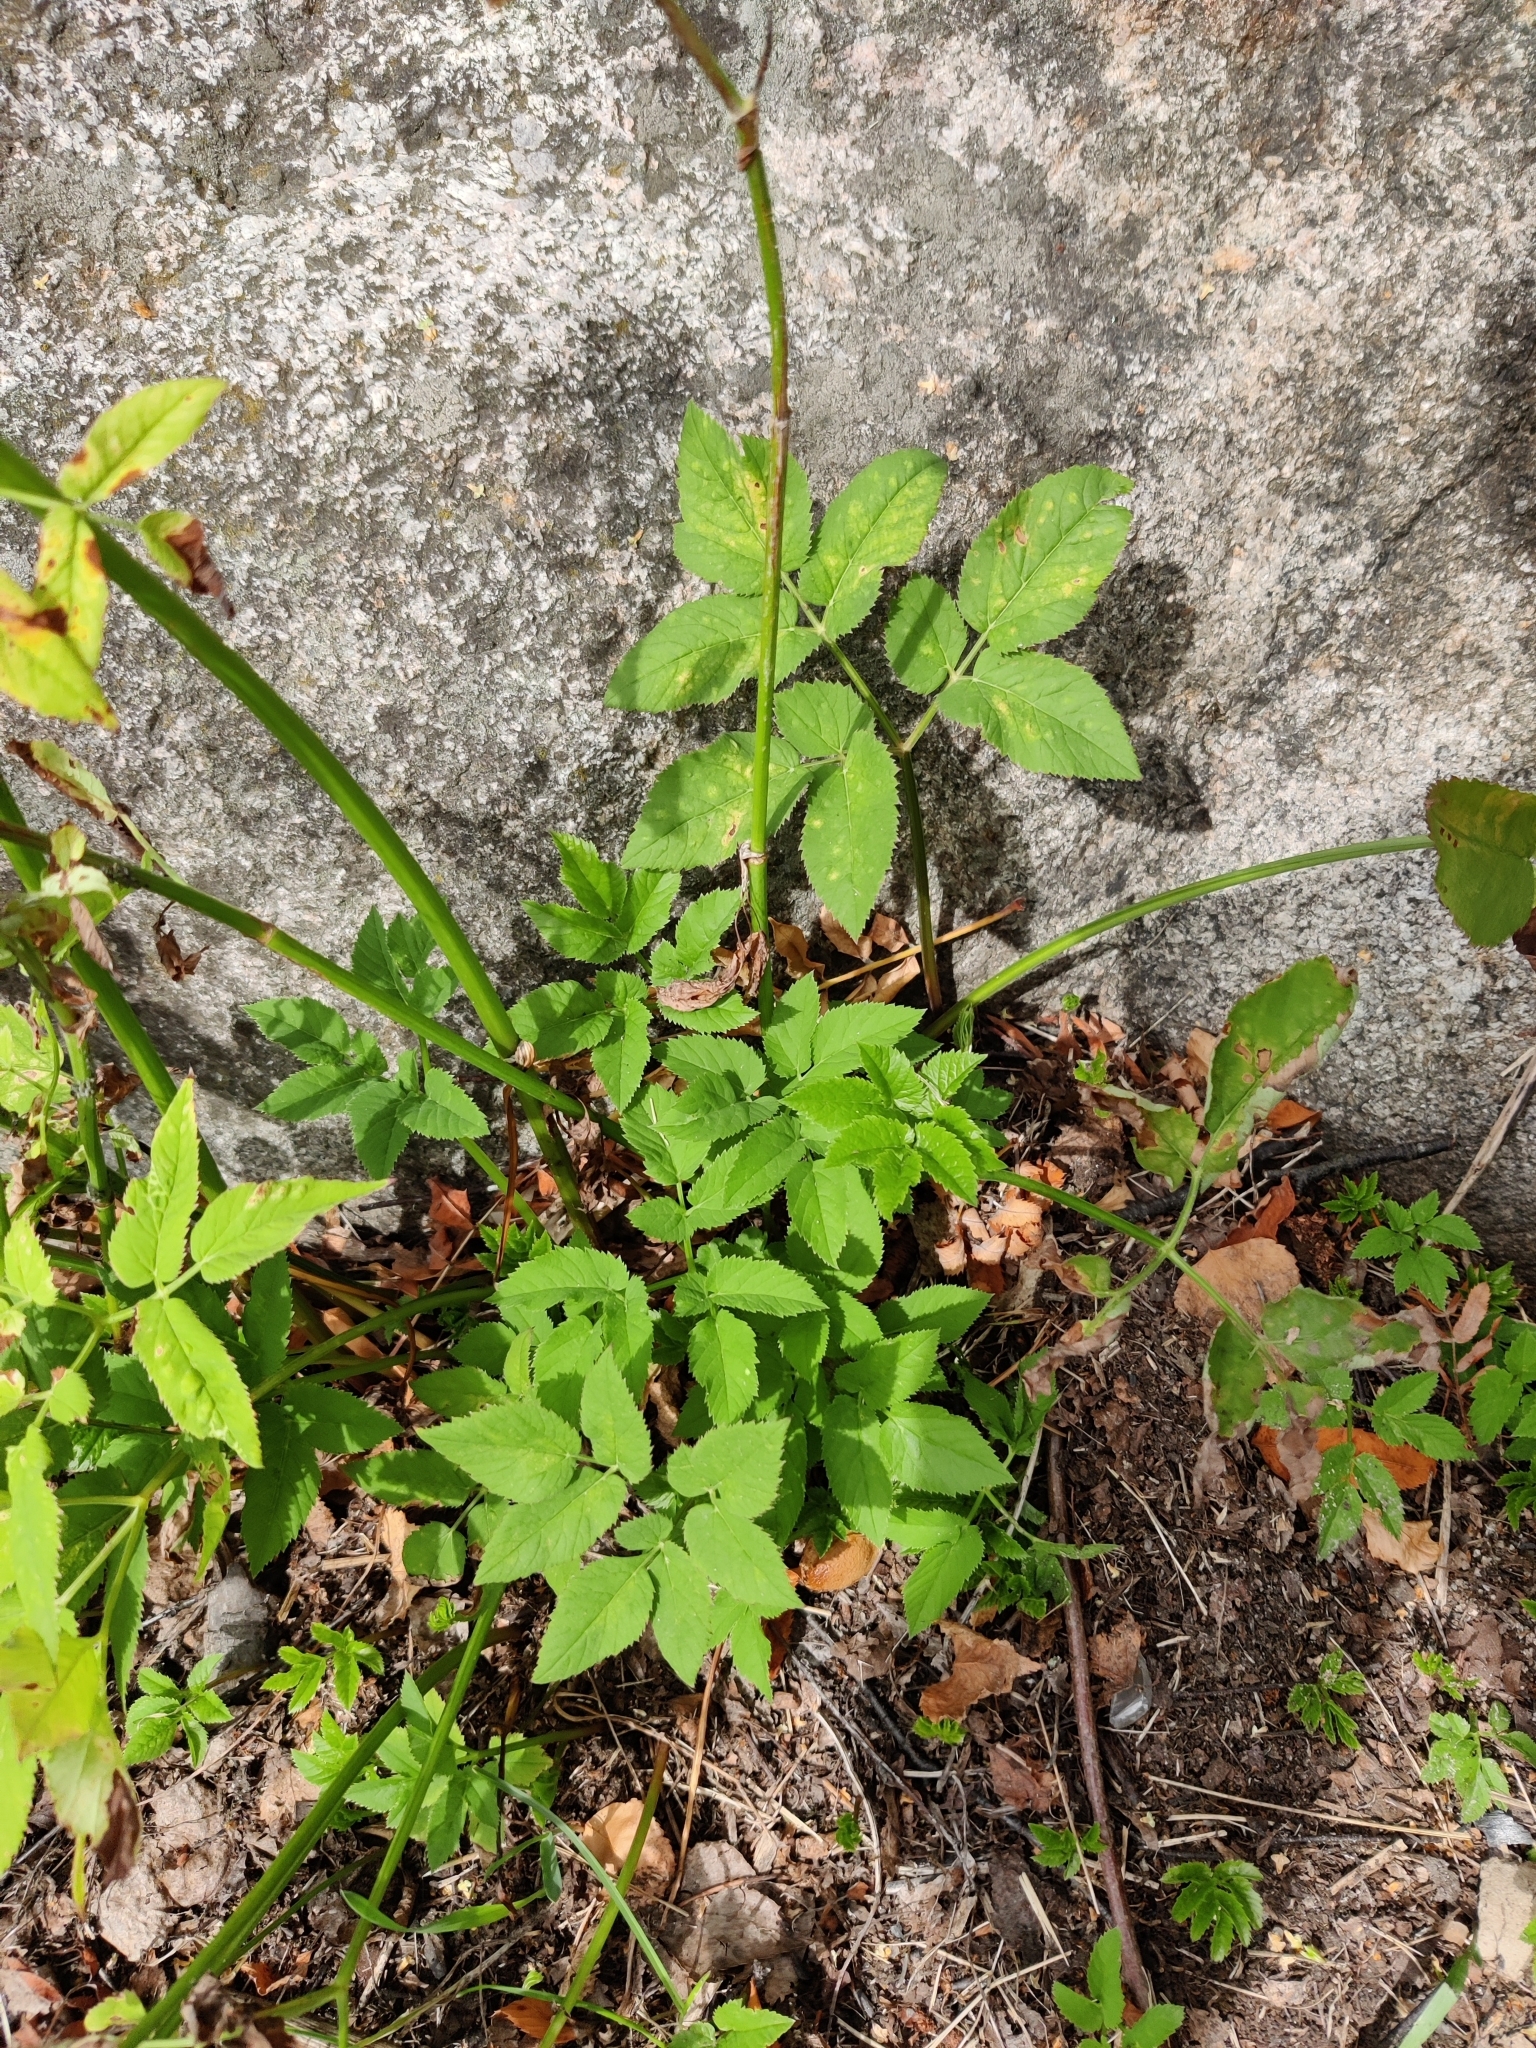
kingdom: Plantae
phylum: Tracheophyta
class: Magnoliopsida
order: Apiales
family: Apiaceae
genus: Aegopodium
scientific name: Aegopodium podagraria
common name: Ground-elder
